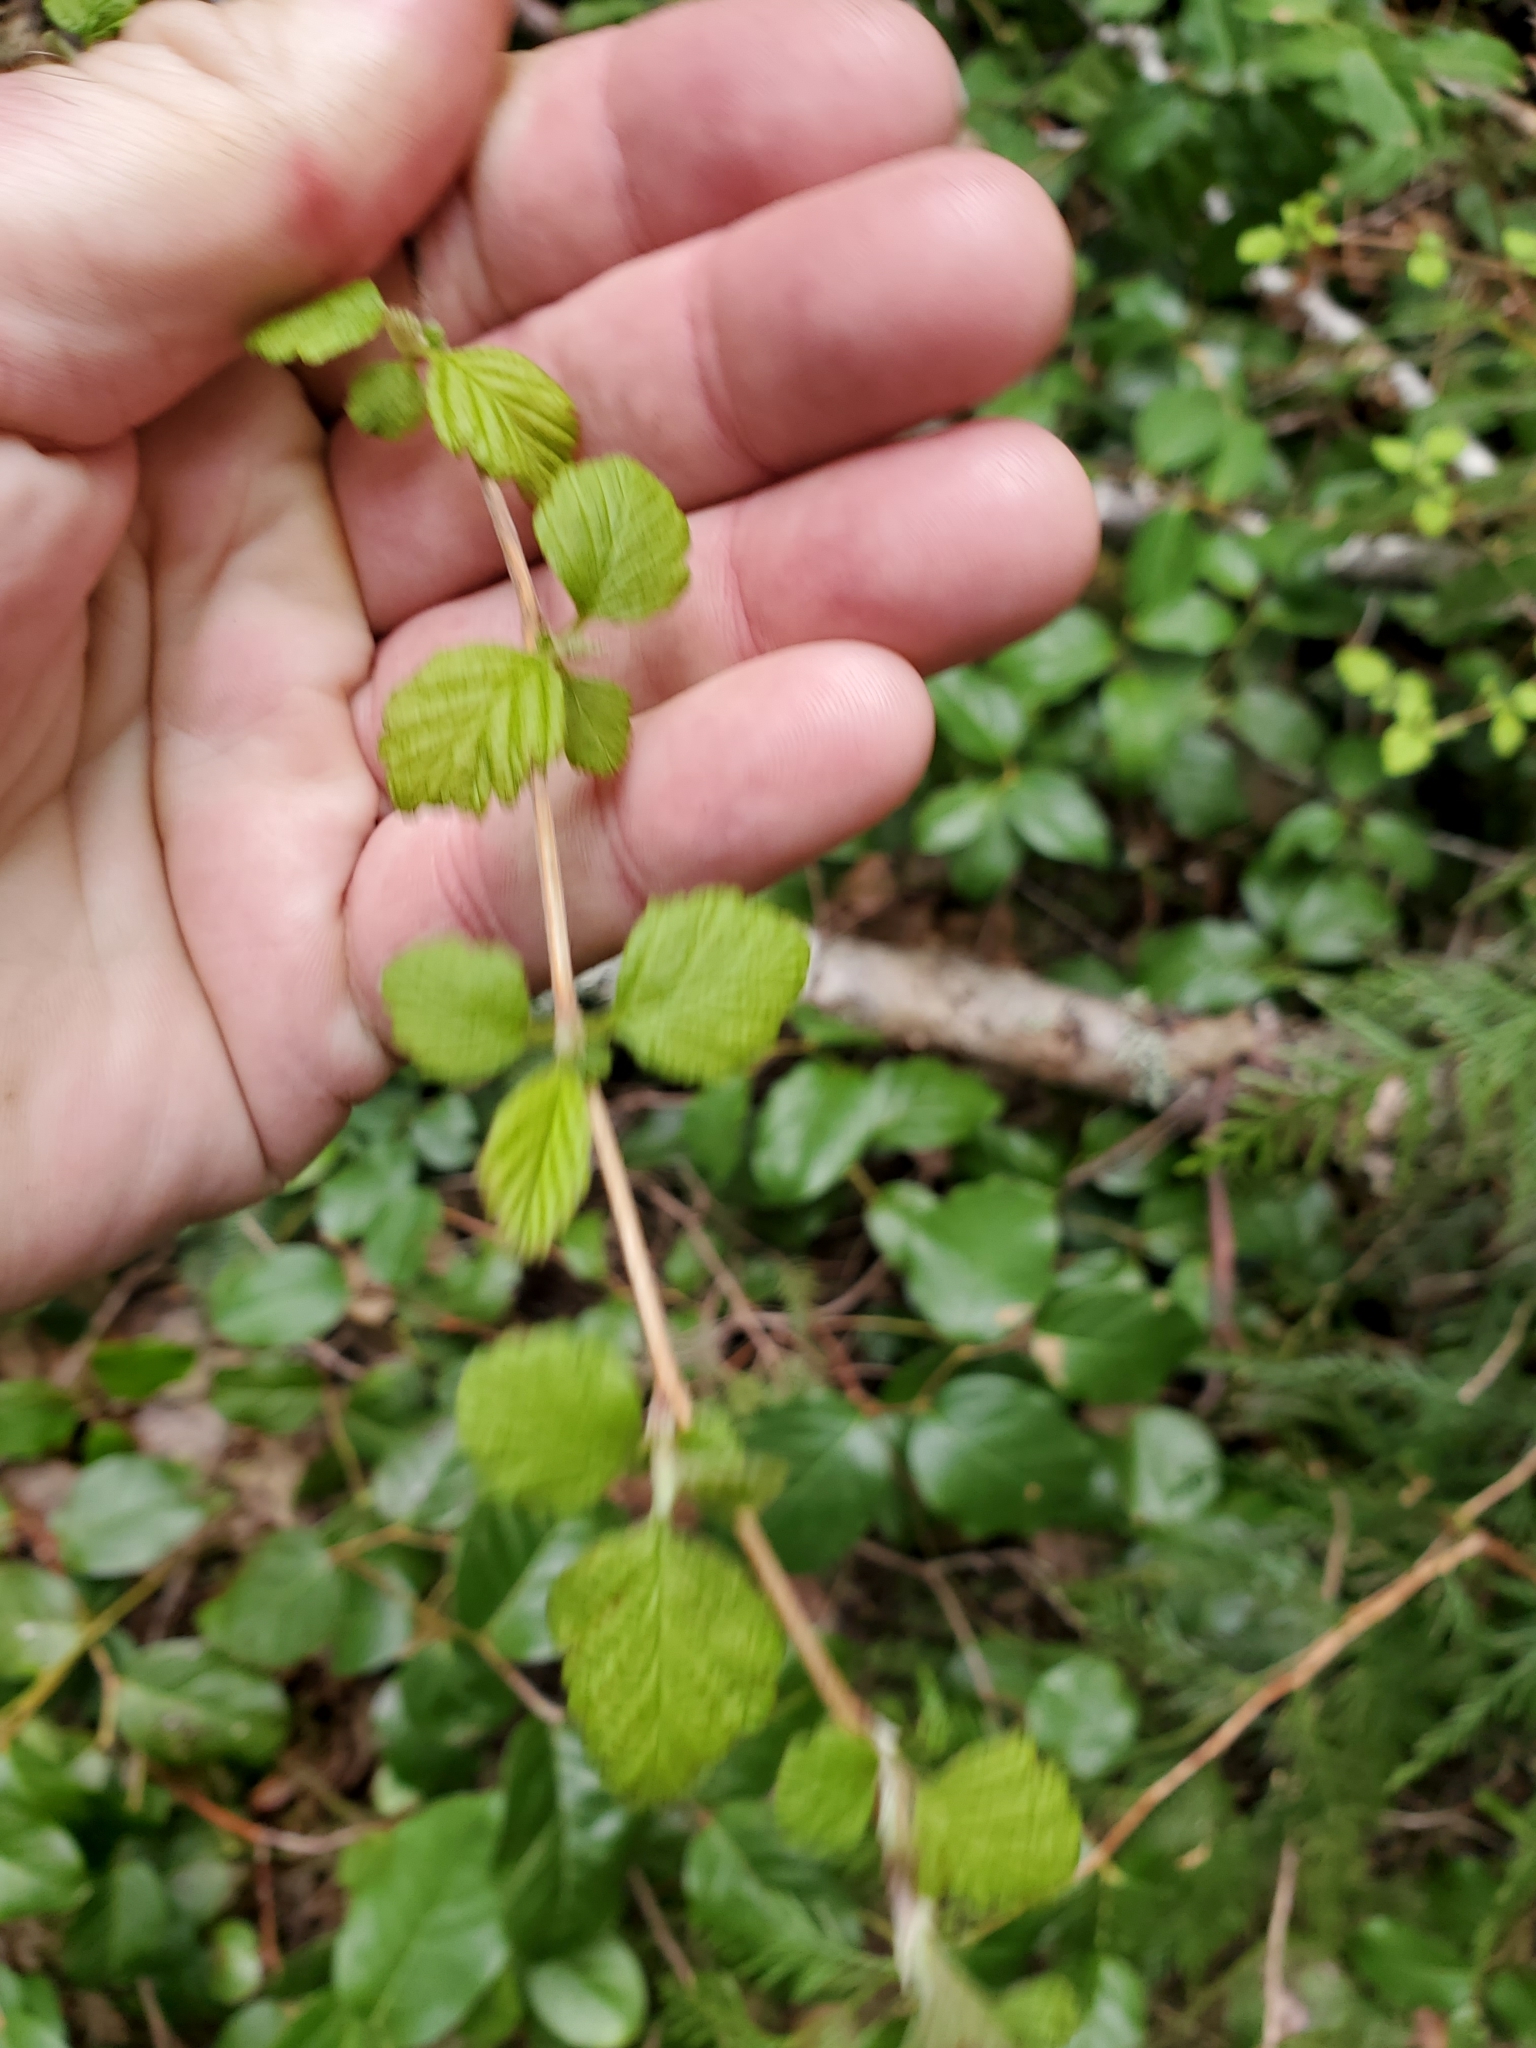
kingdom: Plantae
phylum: Tracheophyta
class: Magnoliopsida
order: Rosales
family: Rosaceae
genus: Holodiscus
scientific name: Holodiscus discolor
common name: Oceanspray
